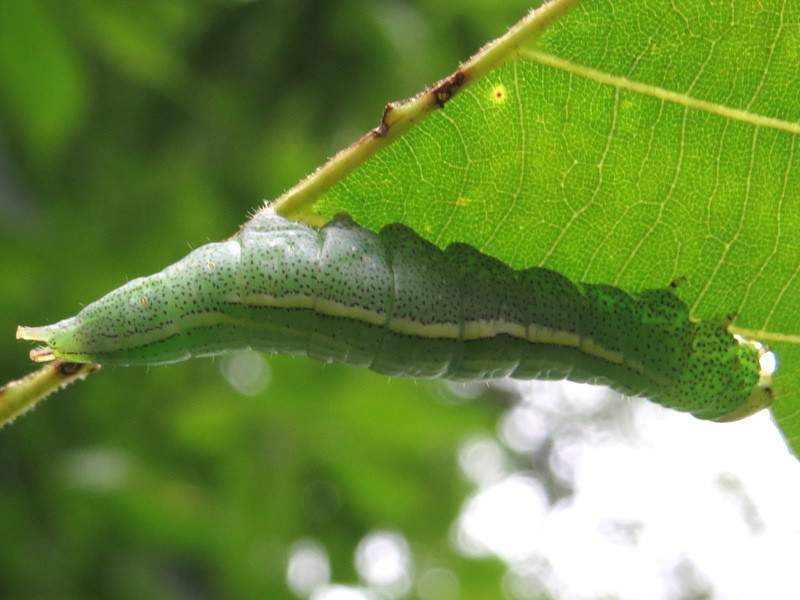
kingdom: Animalia
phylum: Arthropoda
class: Insecta
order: Lepidoptera
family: Notodontidae
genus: Disphragis
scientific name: Disphragis Cecrita guttivitta
